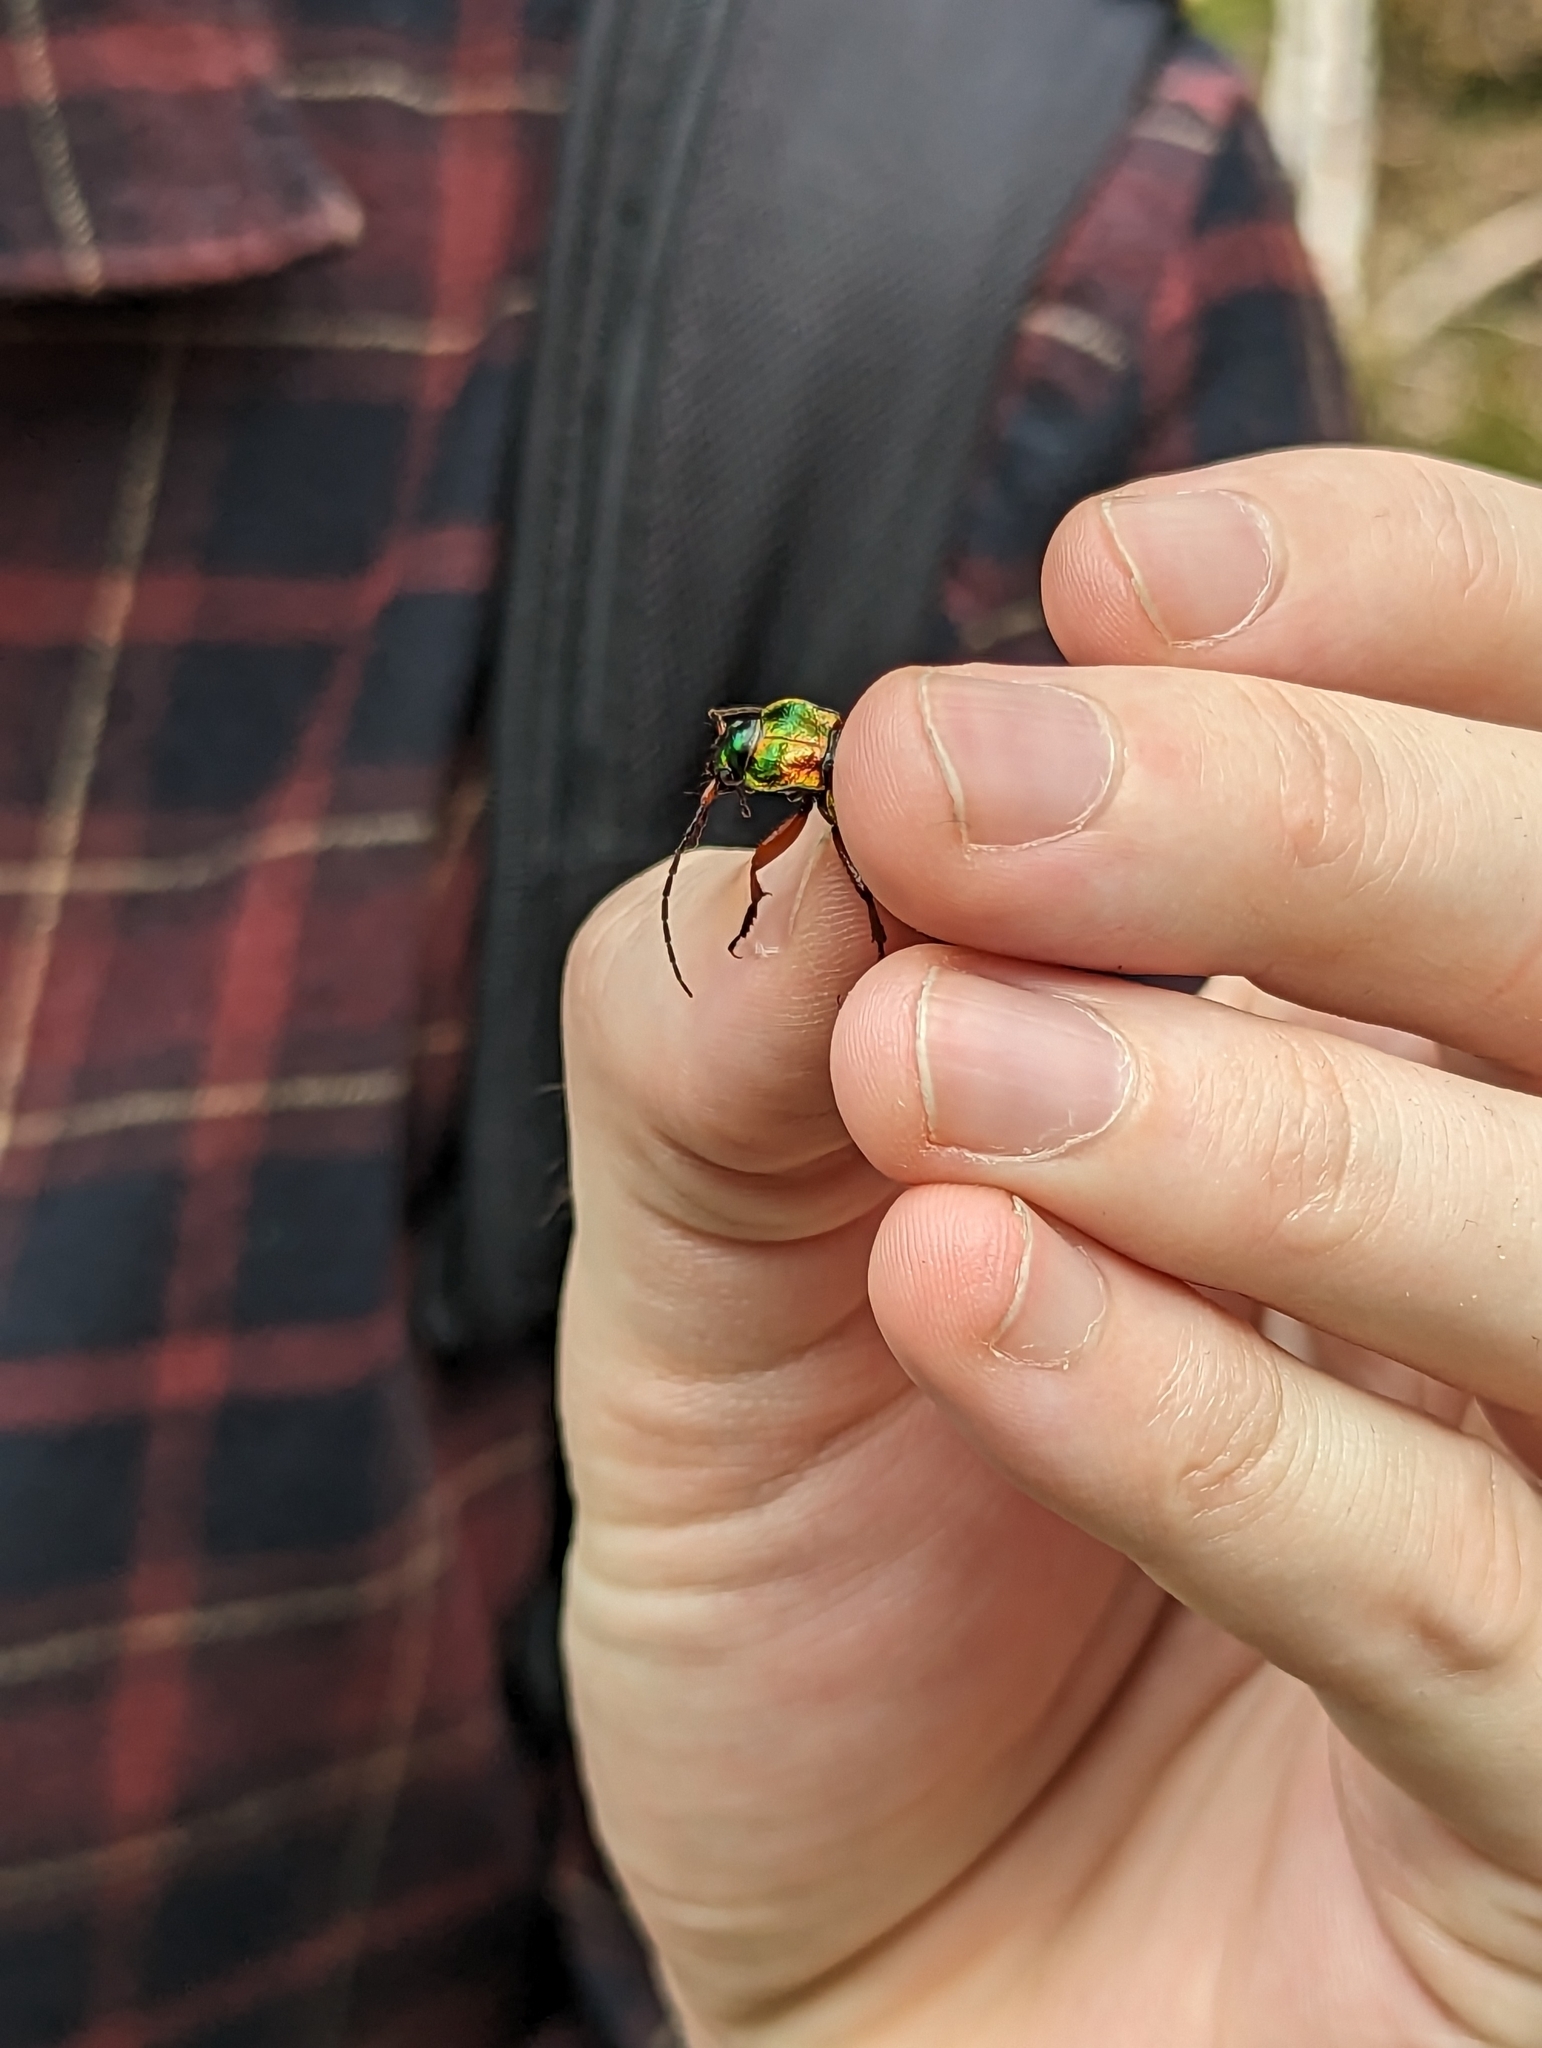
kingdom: Animalia
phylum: Arthropoda
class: Insecta
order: Coleoptera
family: Carabidae
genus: Carabus
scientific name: Carabus auronitens
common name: Carabus auronitens
